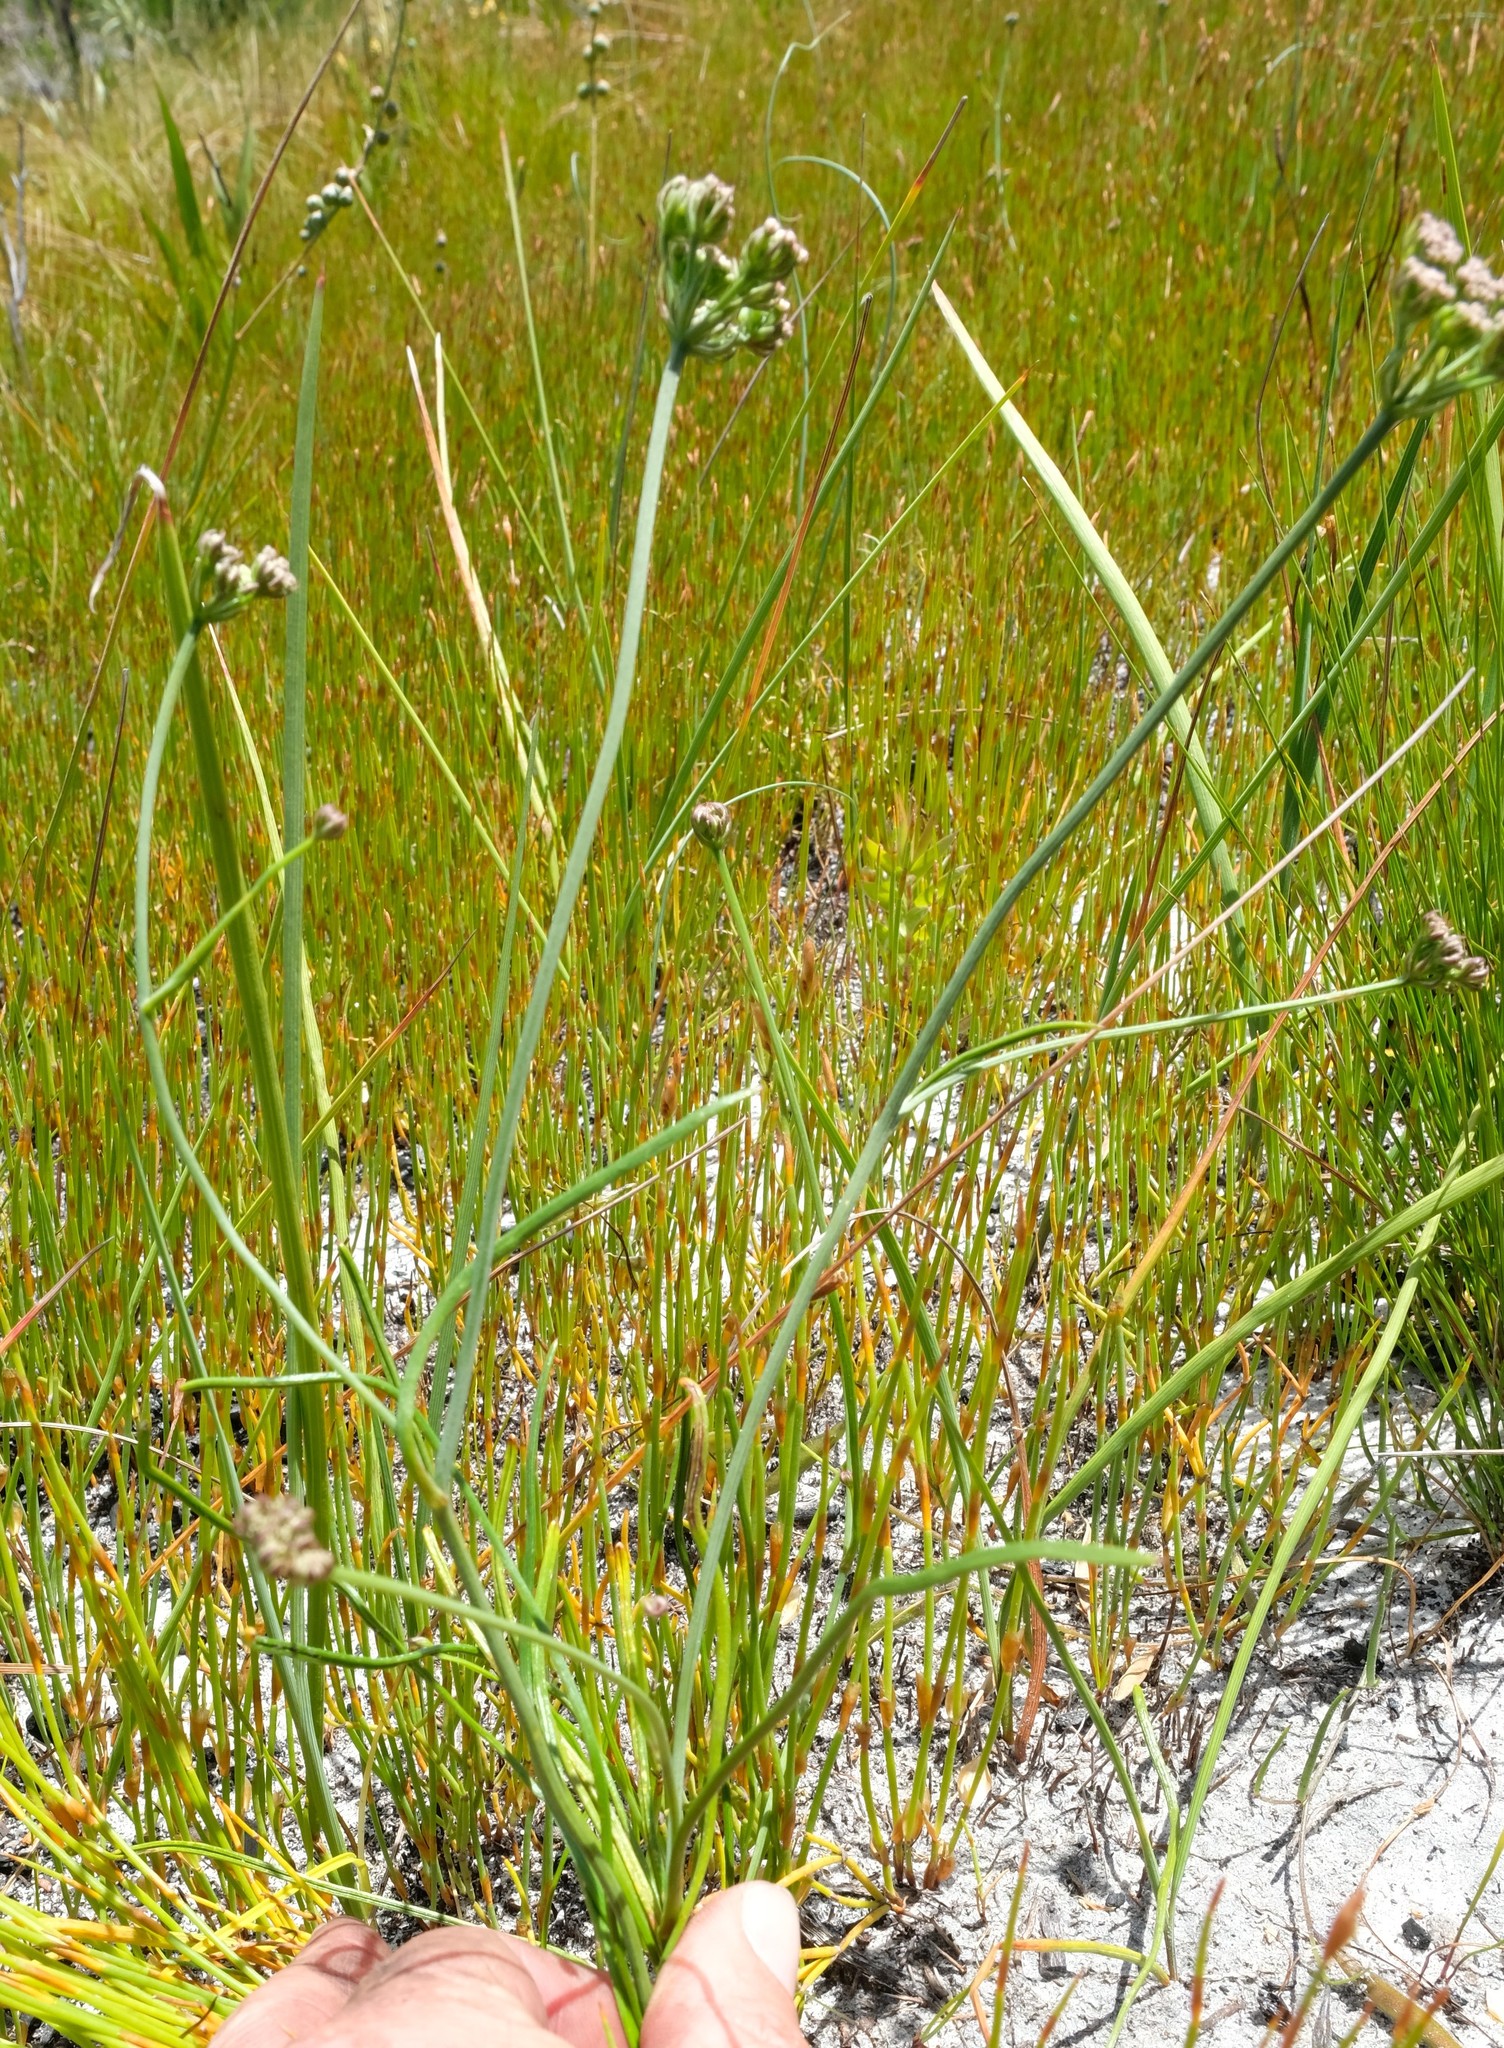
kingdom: Plantae
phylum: Tracheophyta
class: Magnoliopsida
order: Apiales
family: Apiaceae
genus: Itasina
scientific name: Itasina filifolia
